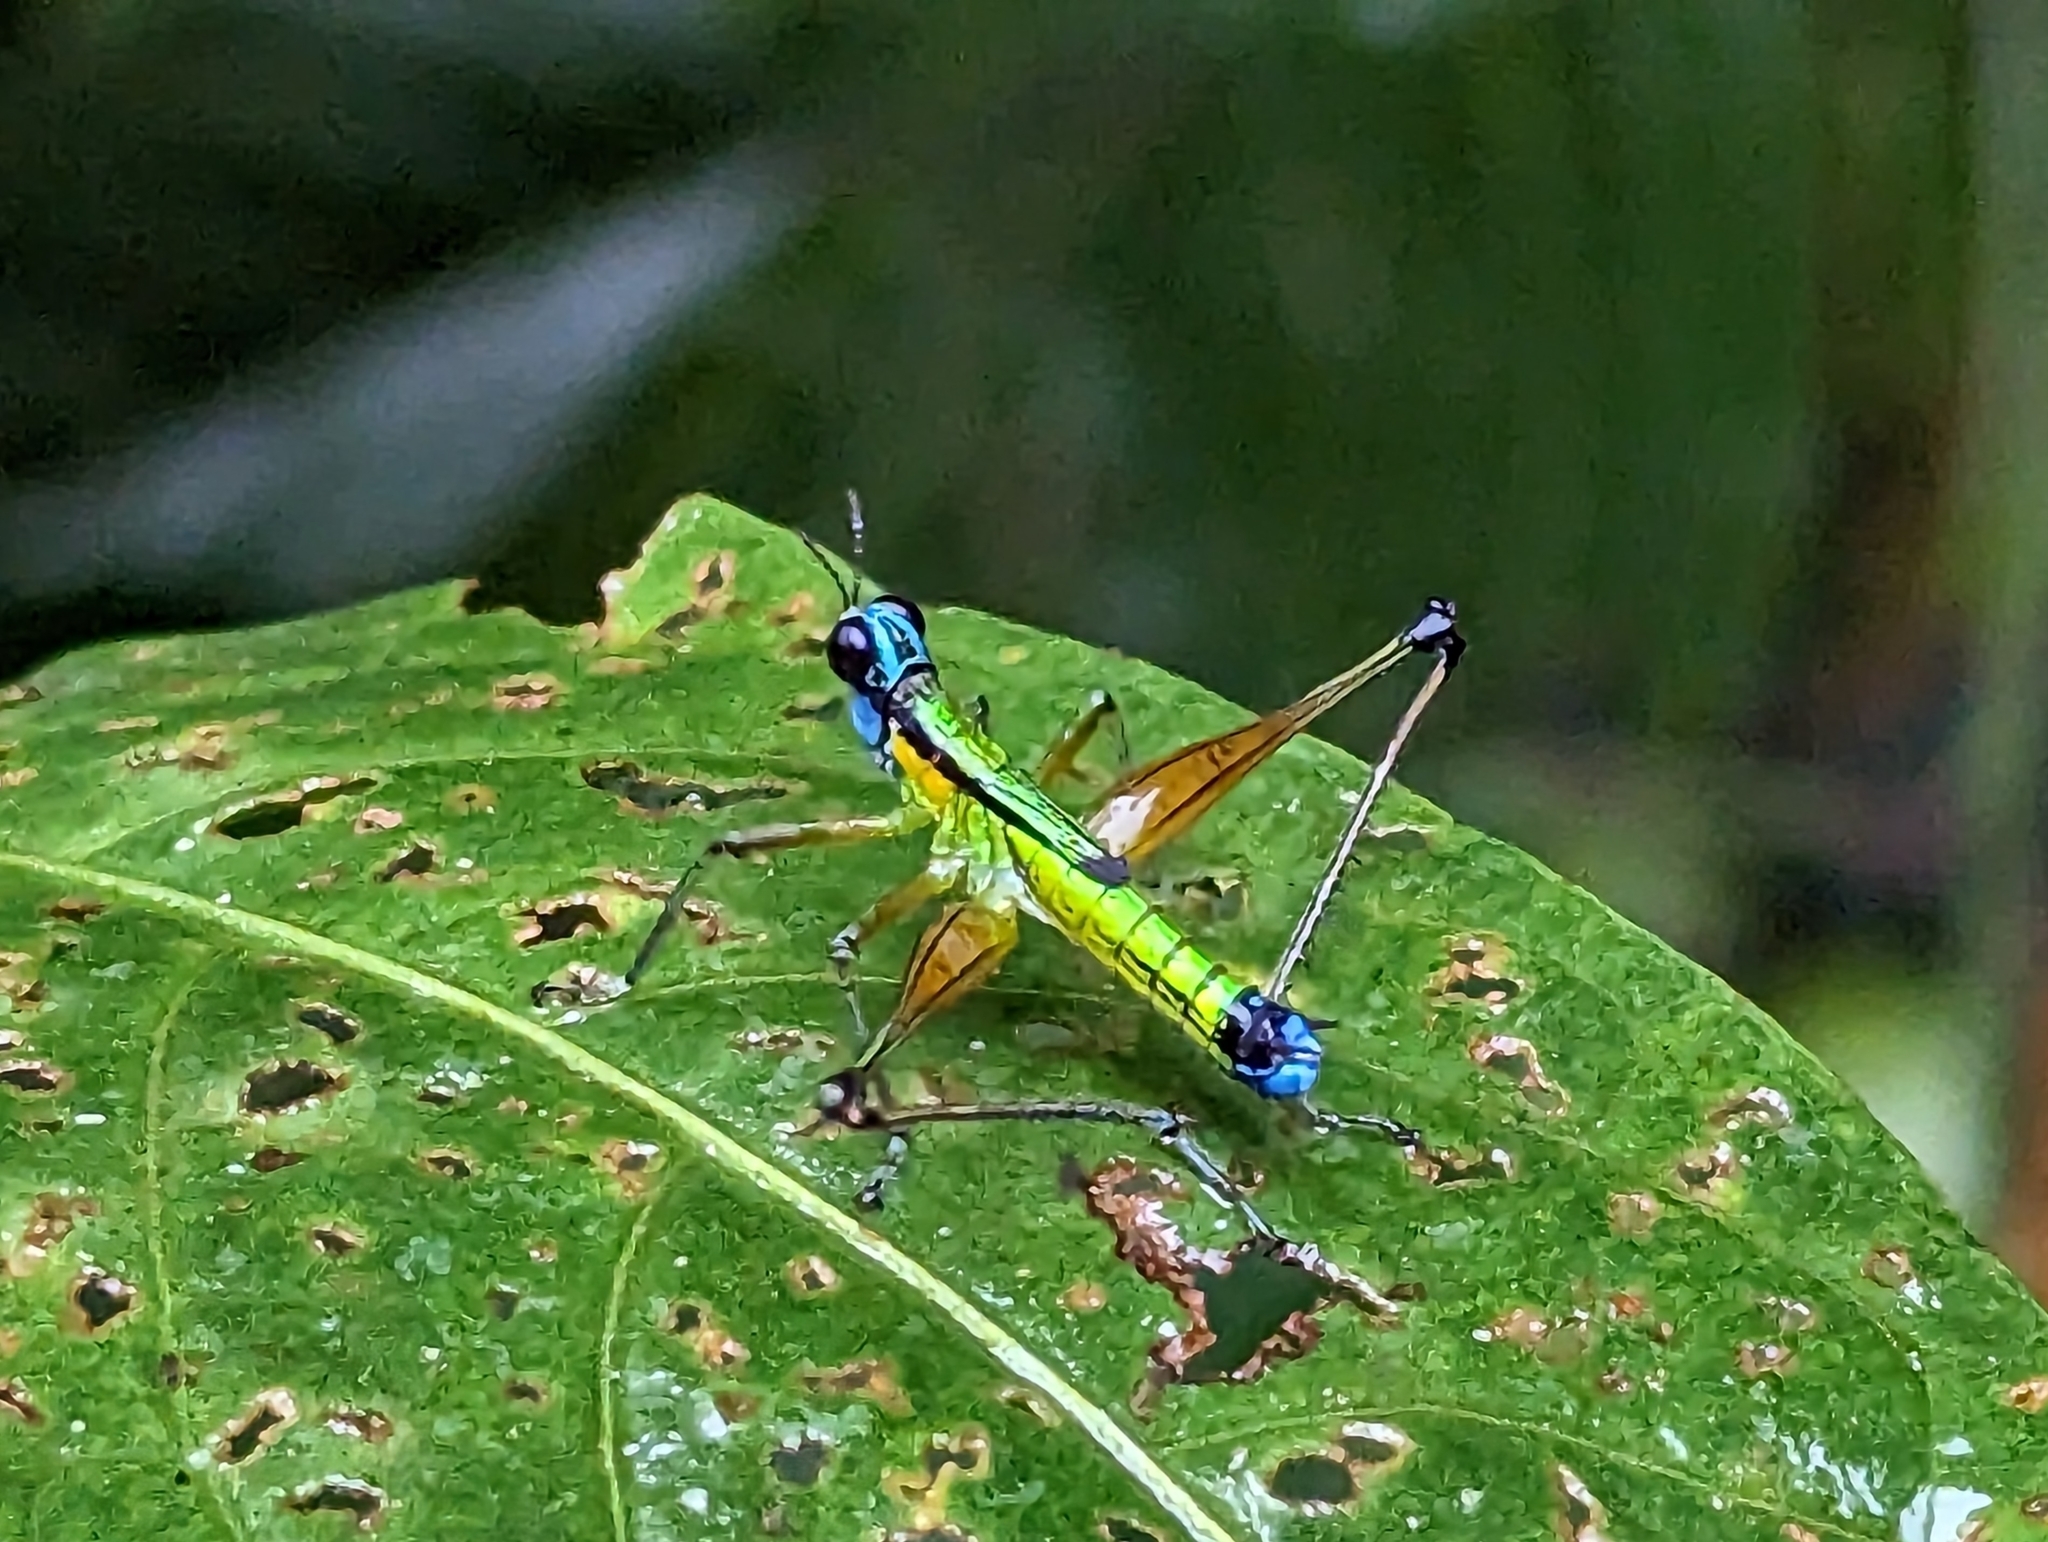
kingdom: Animalia
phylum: Arthropoda
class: Insecta
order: Orthoptera
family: Eumastacidae
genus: Eumastax
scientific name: Eumastax equatoriana
